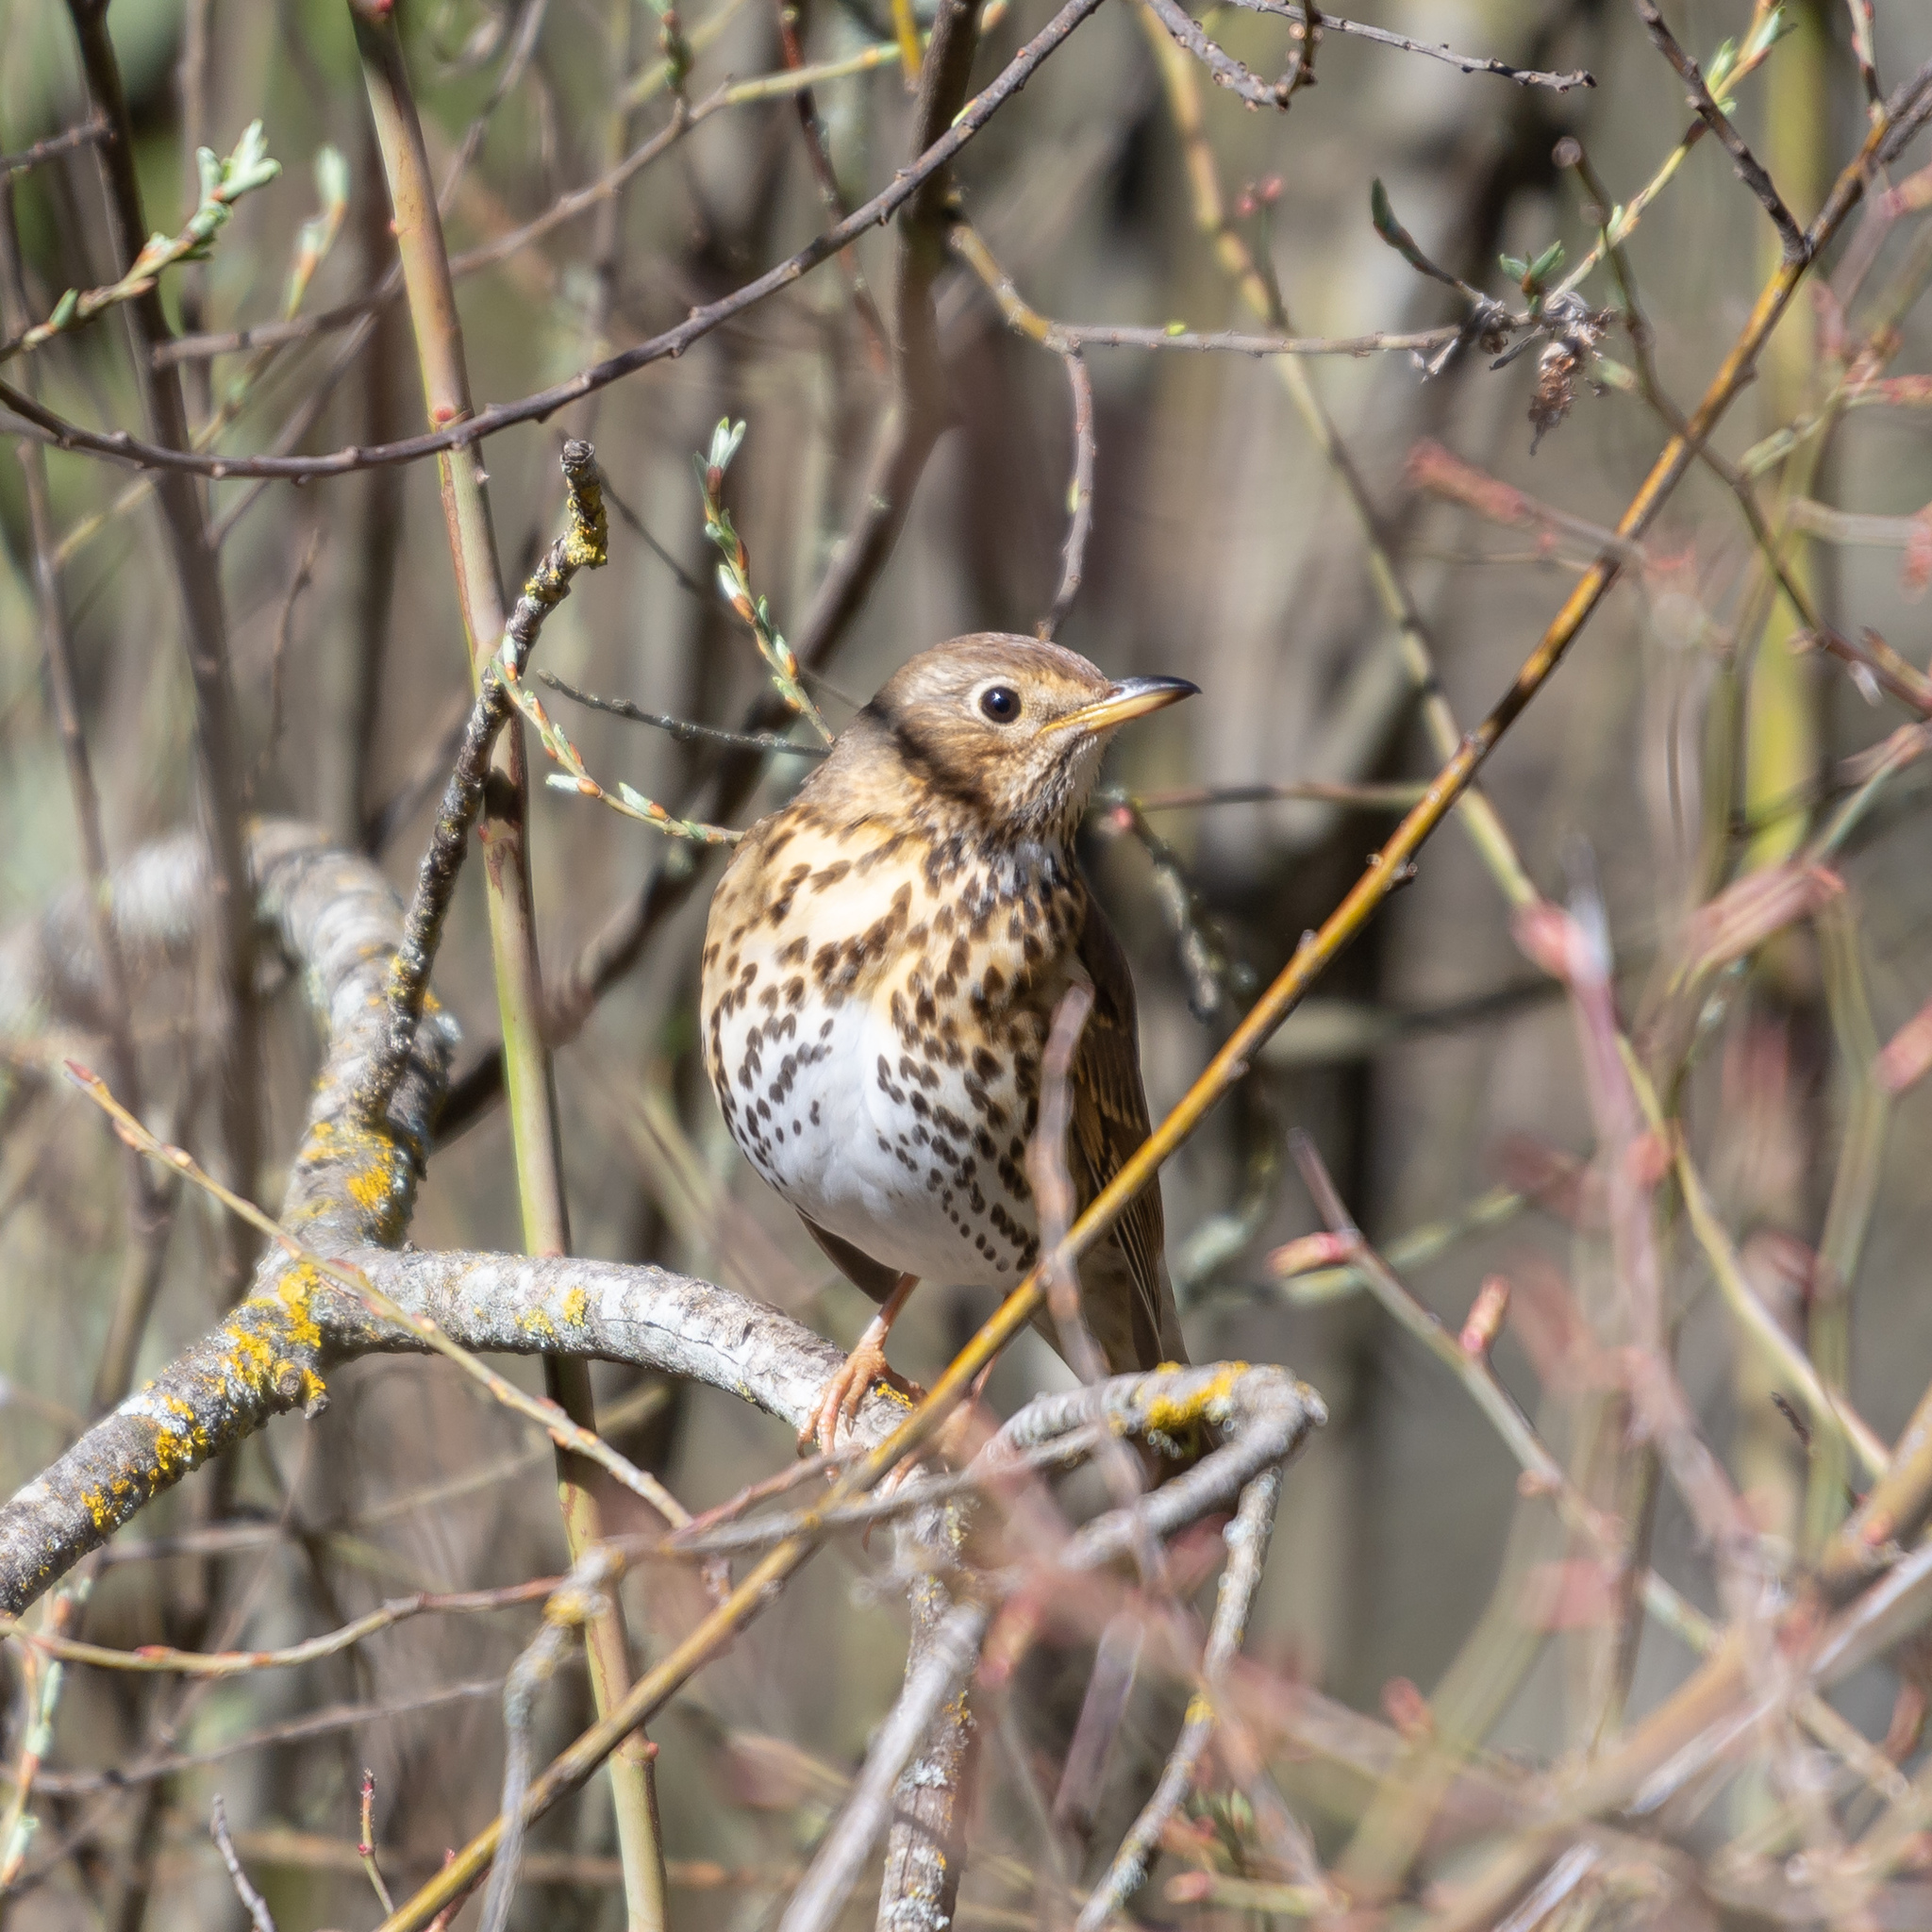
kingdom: Animalia
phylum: Chordata
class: Aves
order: Passeriformes
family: Turdidae
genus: Turdus
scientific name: Turdus philomelos
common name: Song thrush
